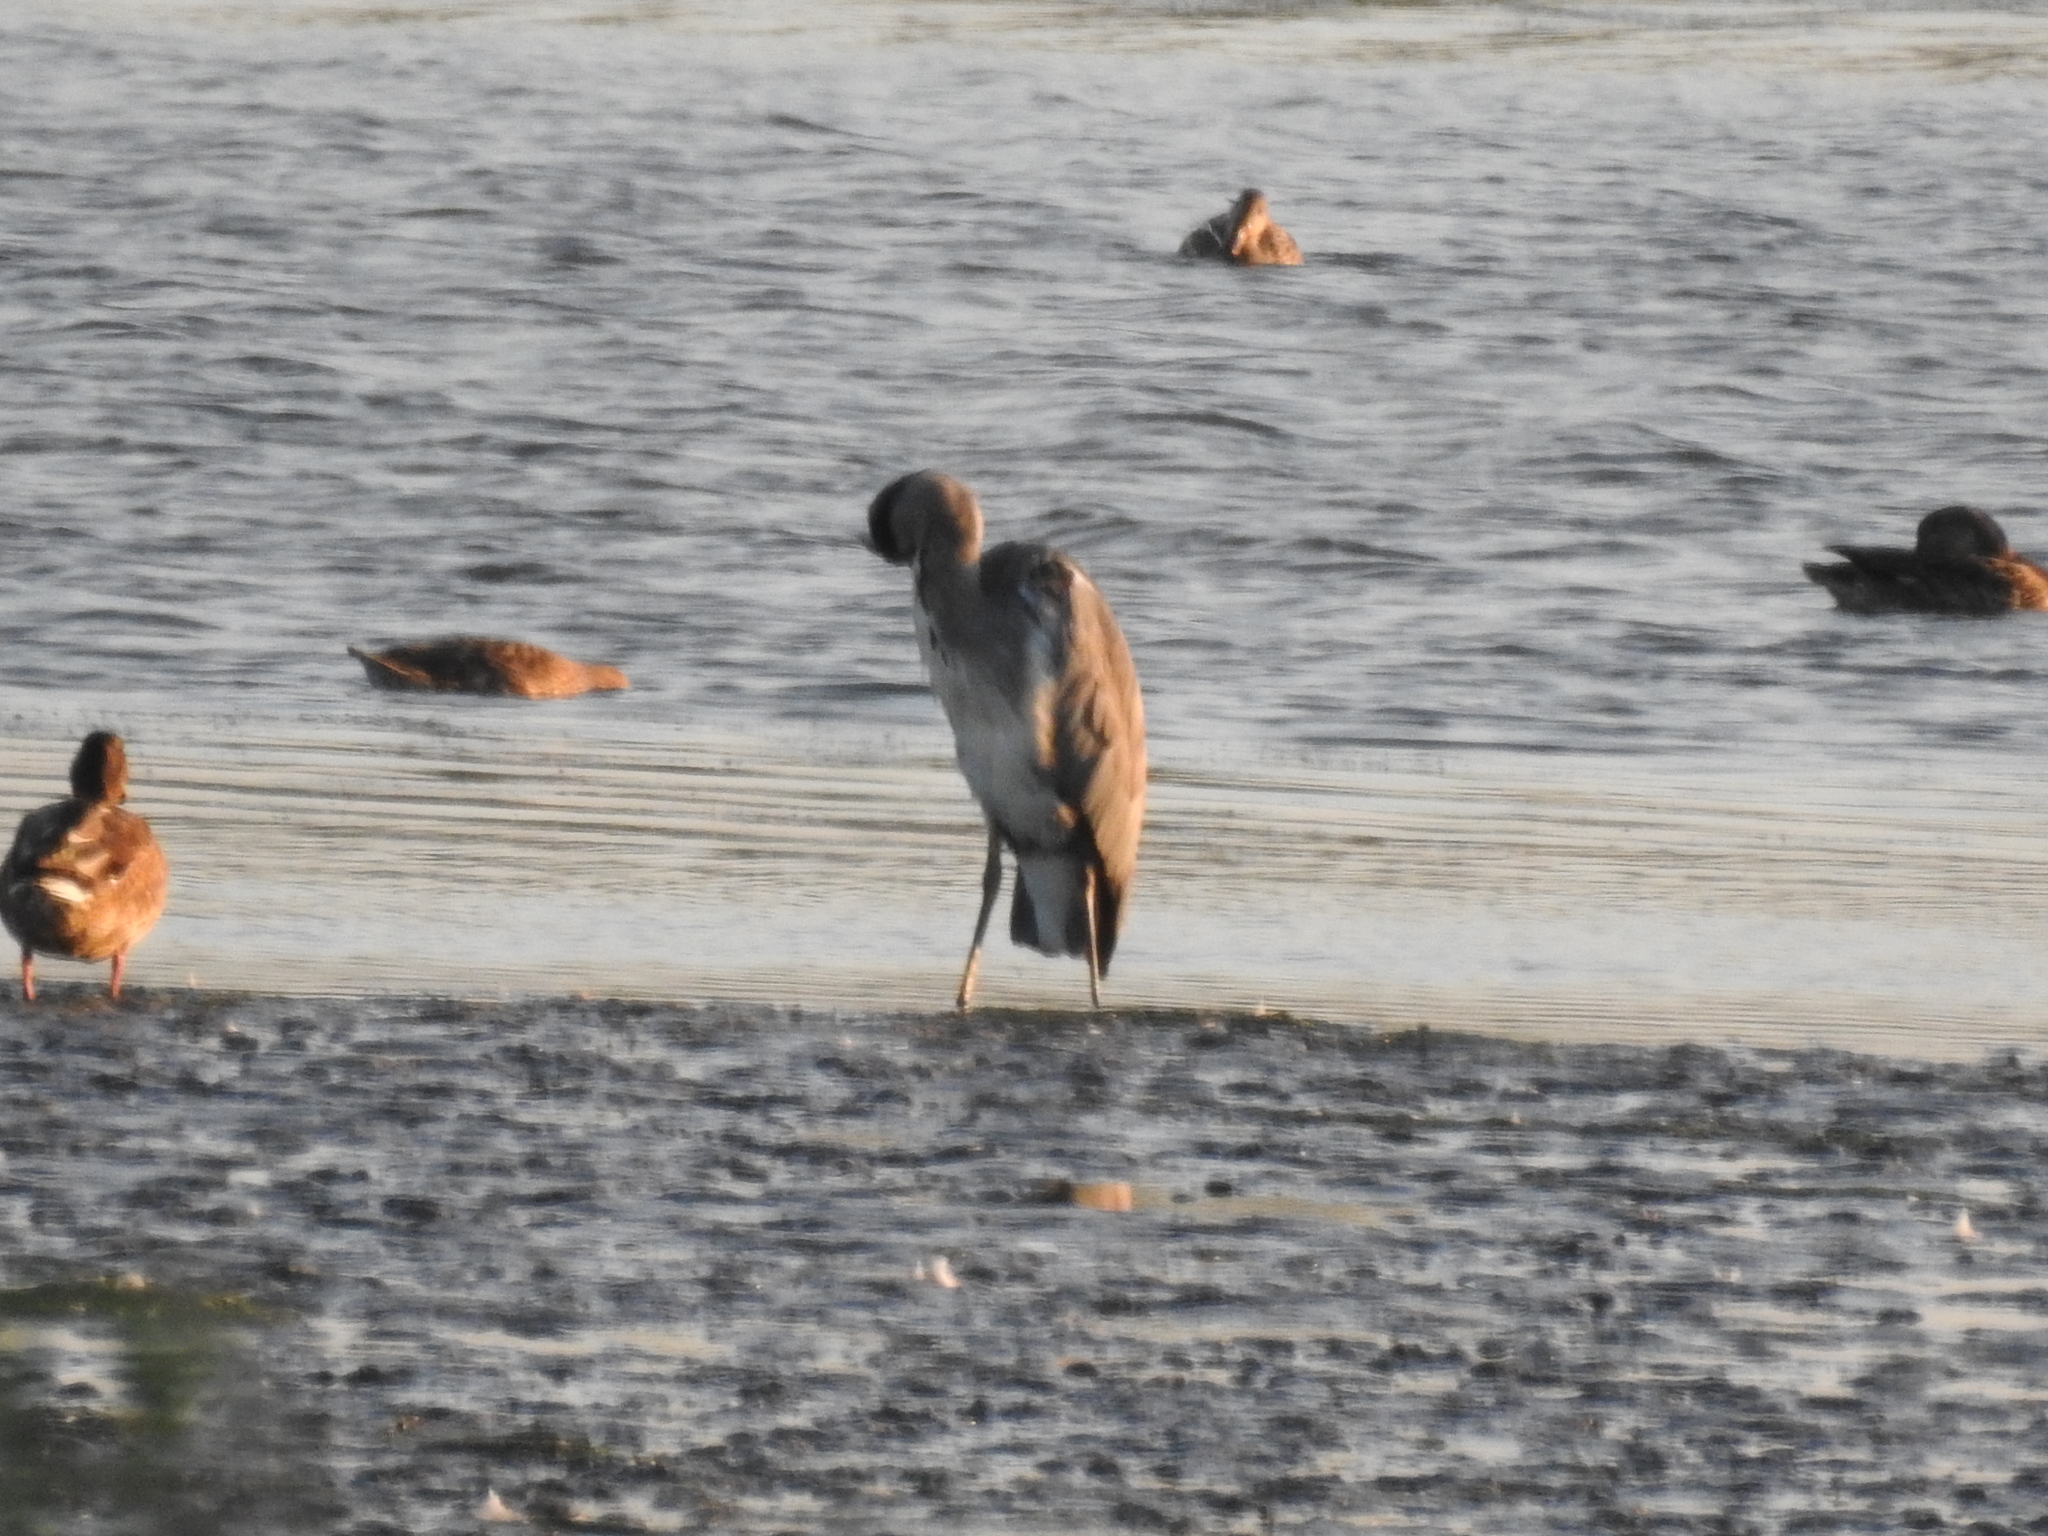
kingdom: Animalia
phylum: Chordata
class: Aves
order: Pelecaniformes
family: Ardeidae
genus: Ardea
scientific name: Ardea cinerea
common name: Grey heron
